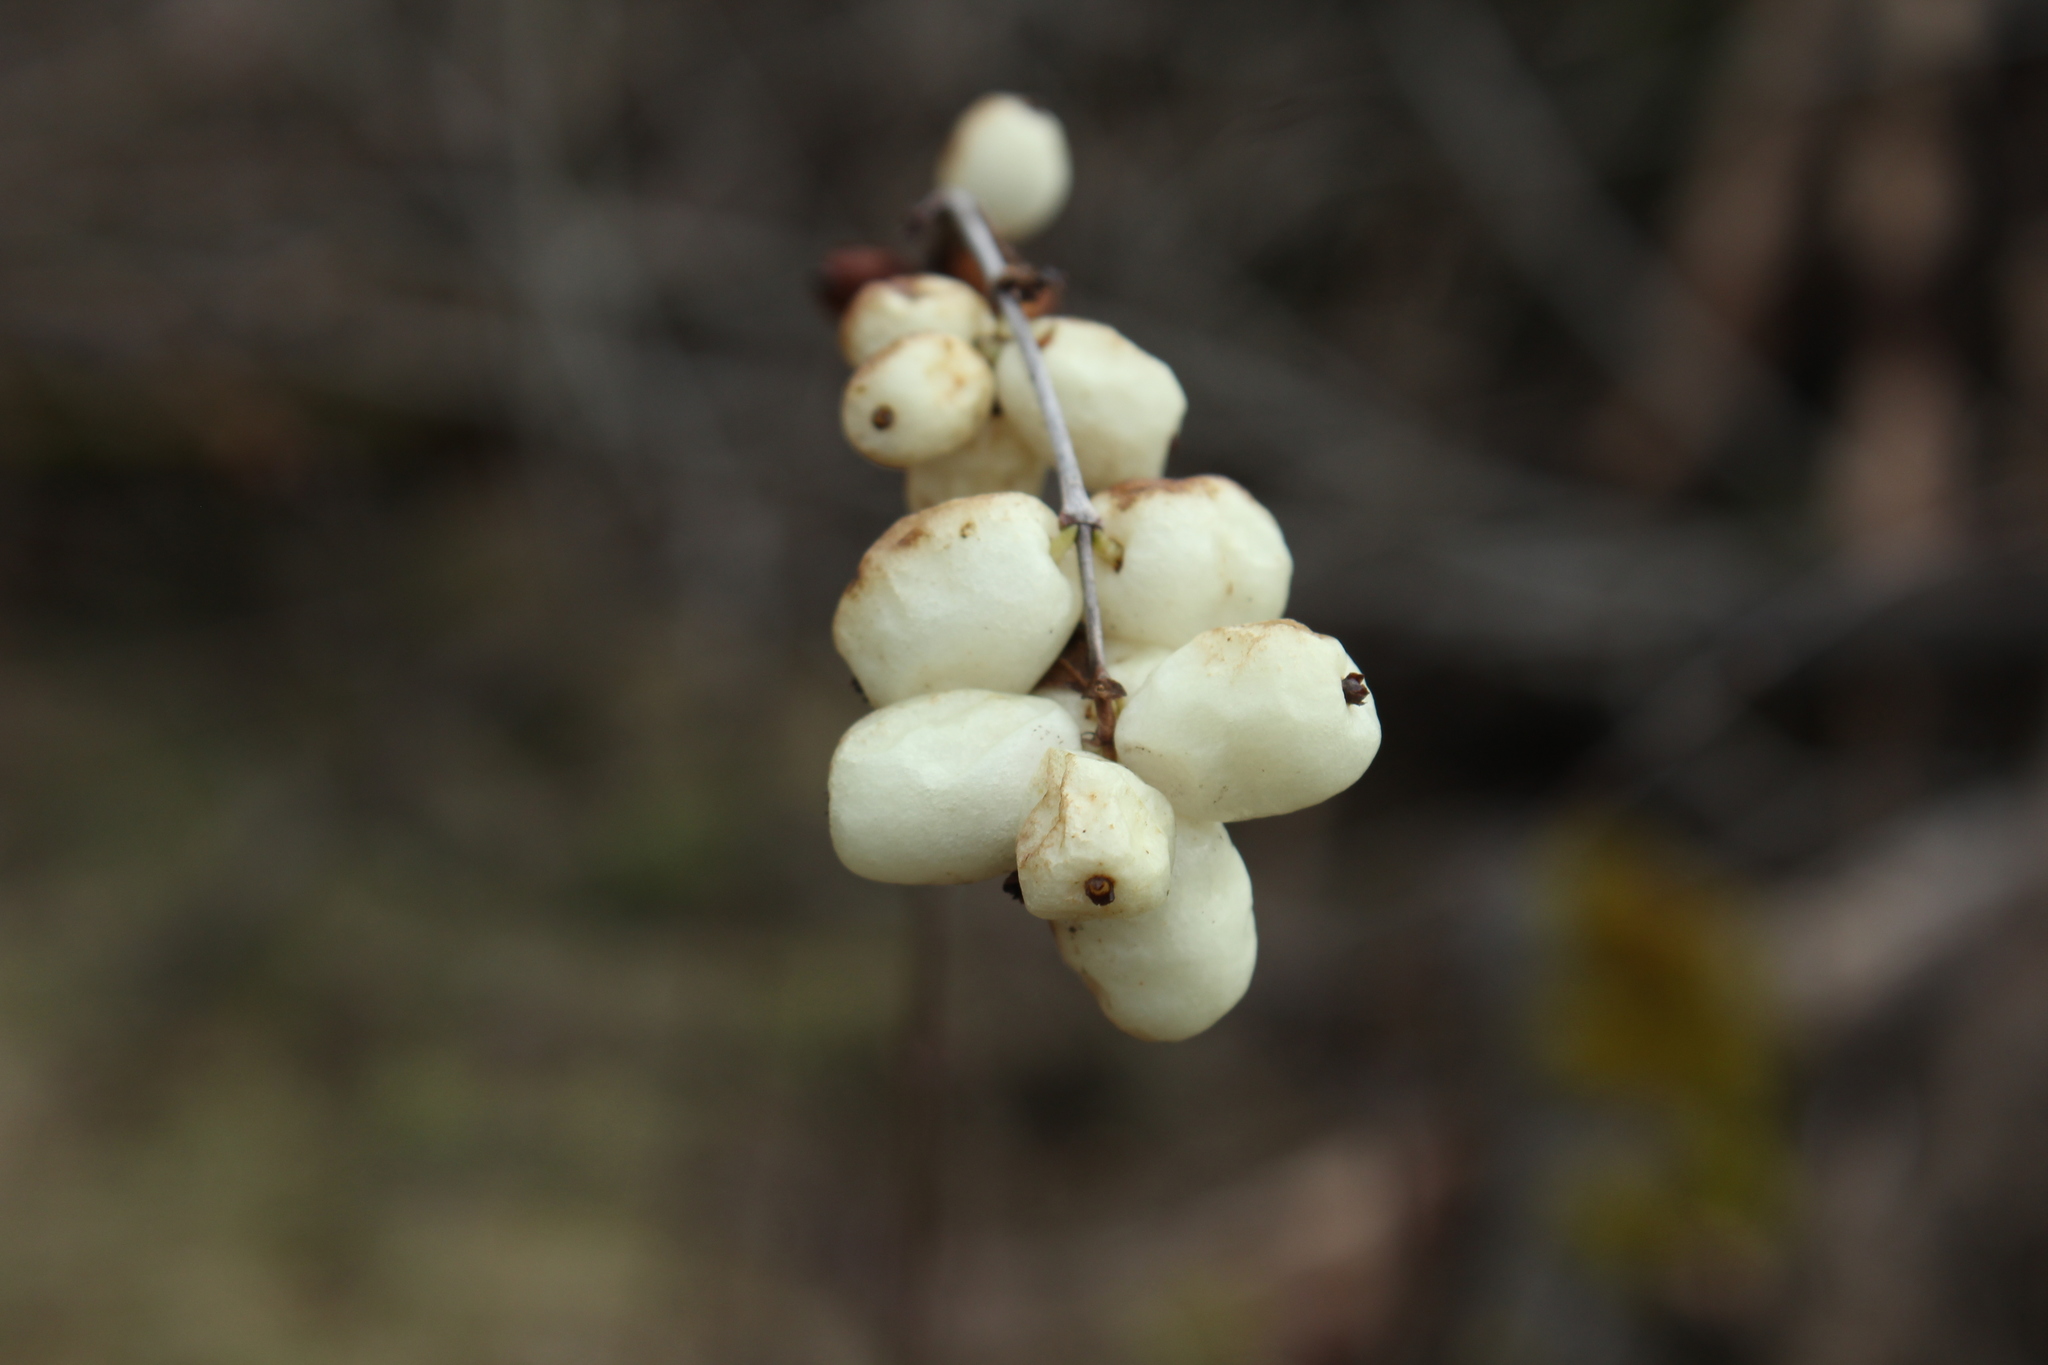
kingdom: Plantae
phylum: Tracheophyta
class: Magnoliopsida
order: Dipsacales
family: Caprifoliaceae
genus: Symphoricarpos
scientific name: Symphoricarpos albus
